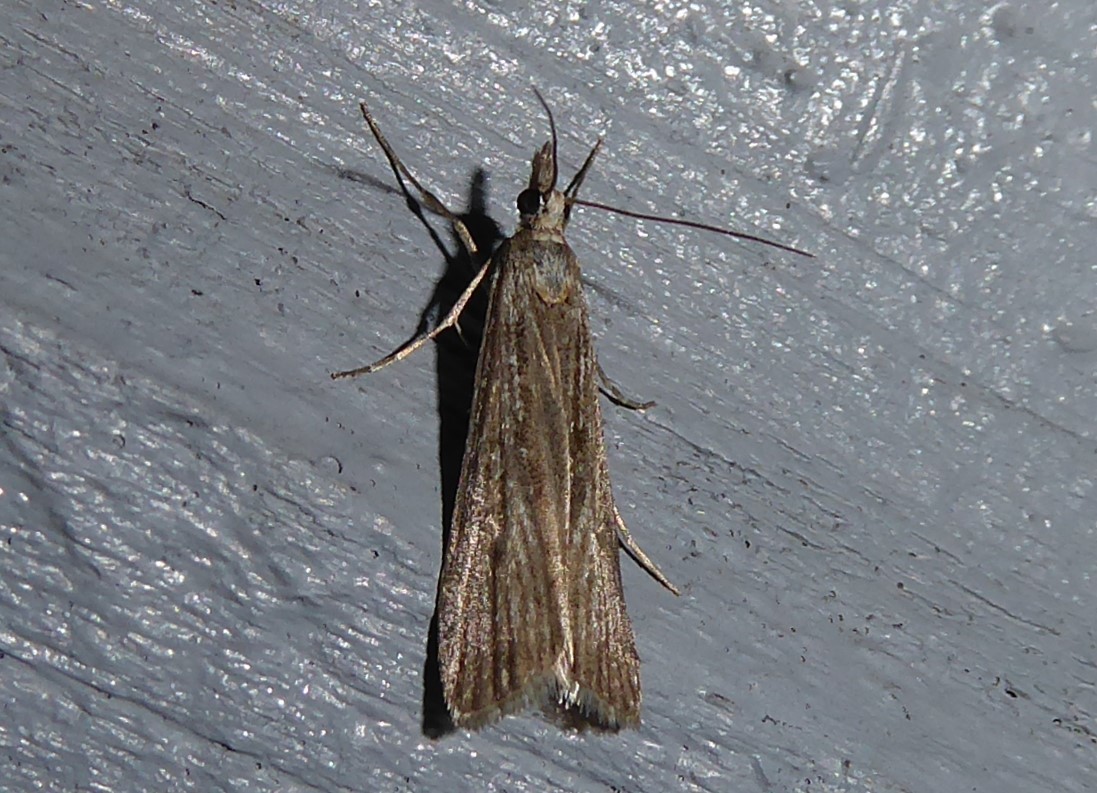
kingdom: Animalia
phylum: Arthropoda
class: Insecta
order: Lepidoptera
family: Crambidae
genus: Eudonia
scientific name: Eudonia atmogramma
